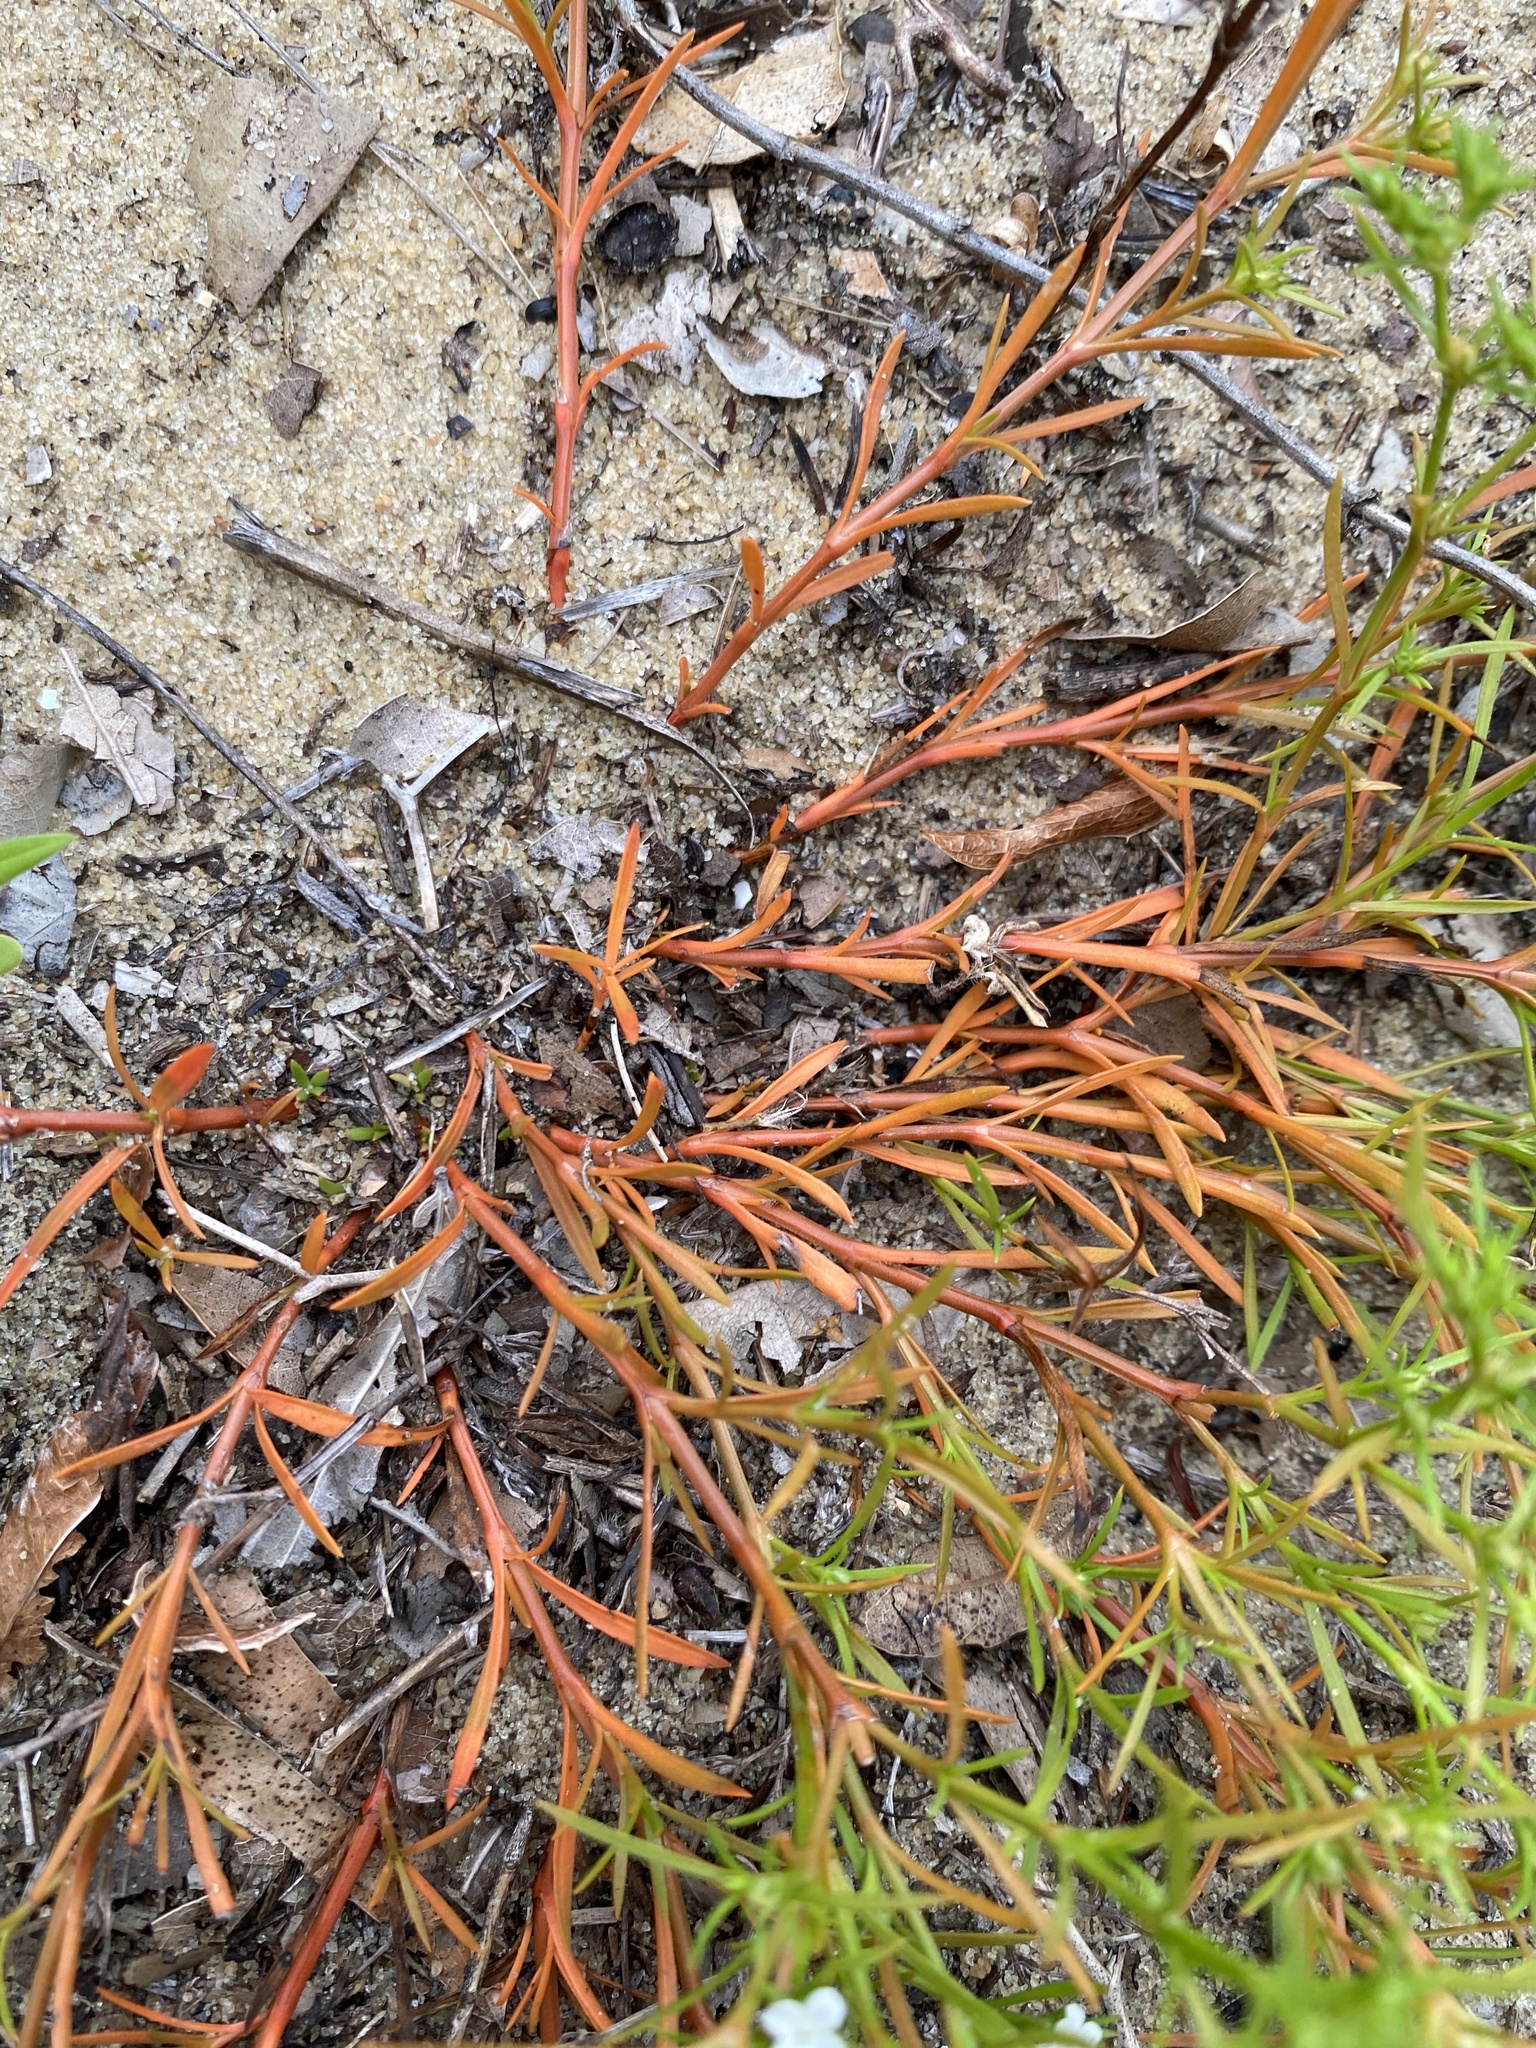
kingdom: Plantae
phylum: Tracheophyta
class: Magnoliopsida
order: Lamiales
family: Tetrachondraceae
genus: Polypremum
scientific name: Polypremum procumbens
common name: Juniper-leaf
